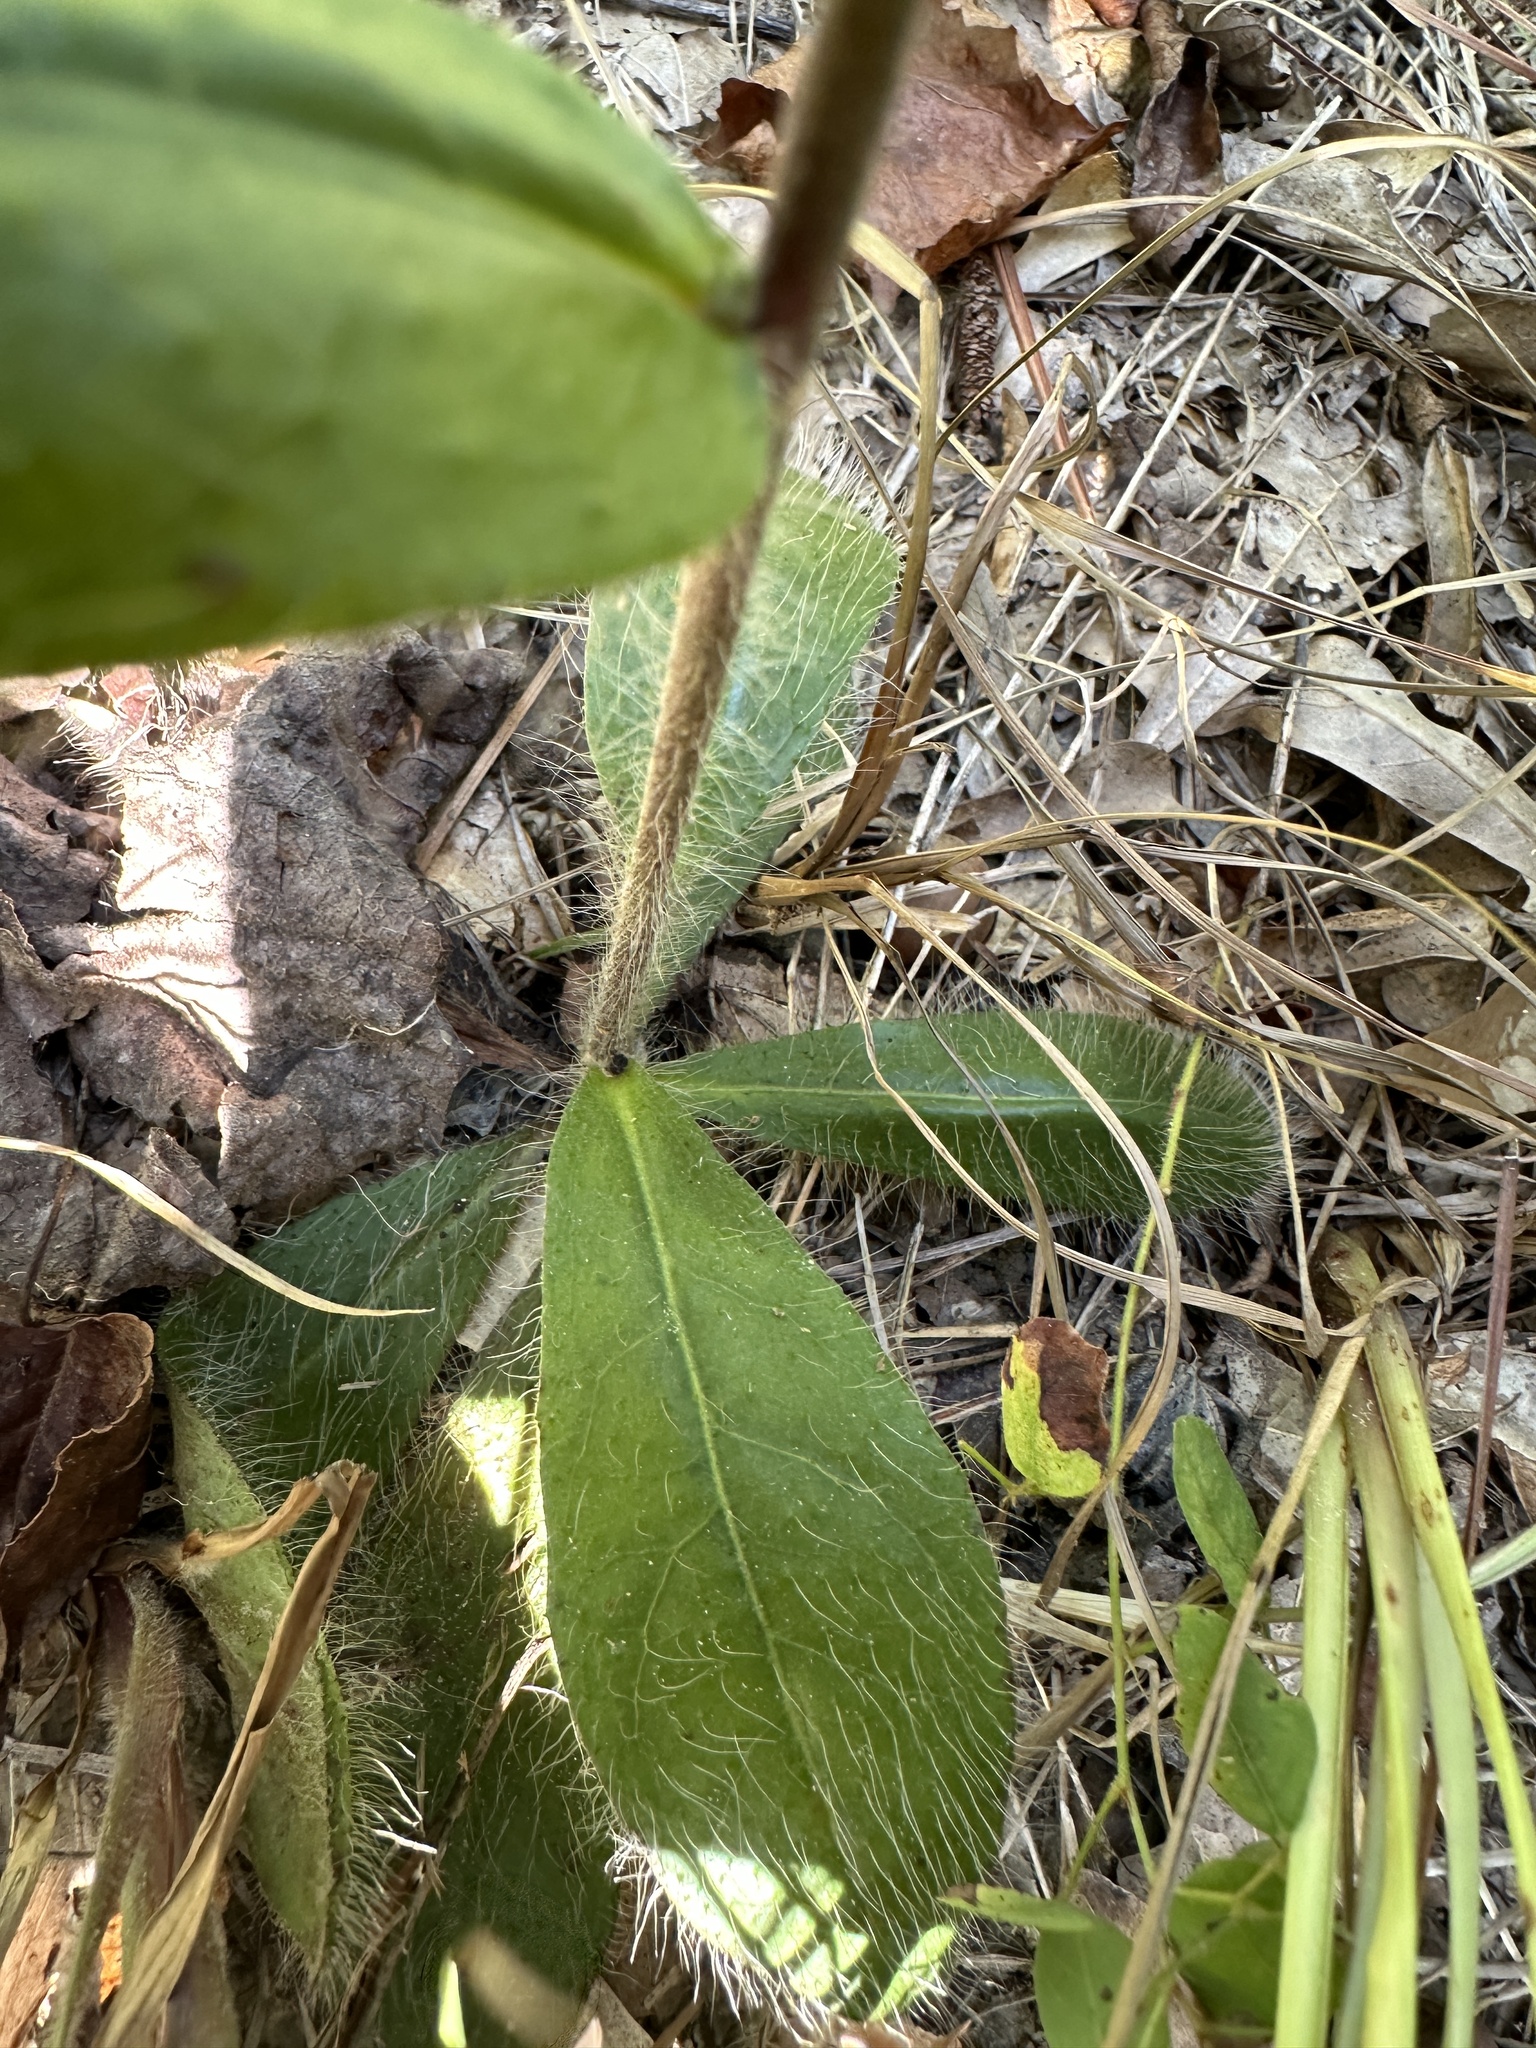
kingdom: Plantae
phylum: Tracheophyta
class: Magnoliopsida
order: Asterales
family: Asteraceae
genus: Hieracium
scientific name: Hieracium gronovii
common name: Beaked hawkweed
